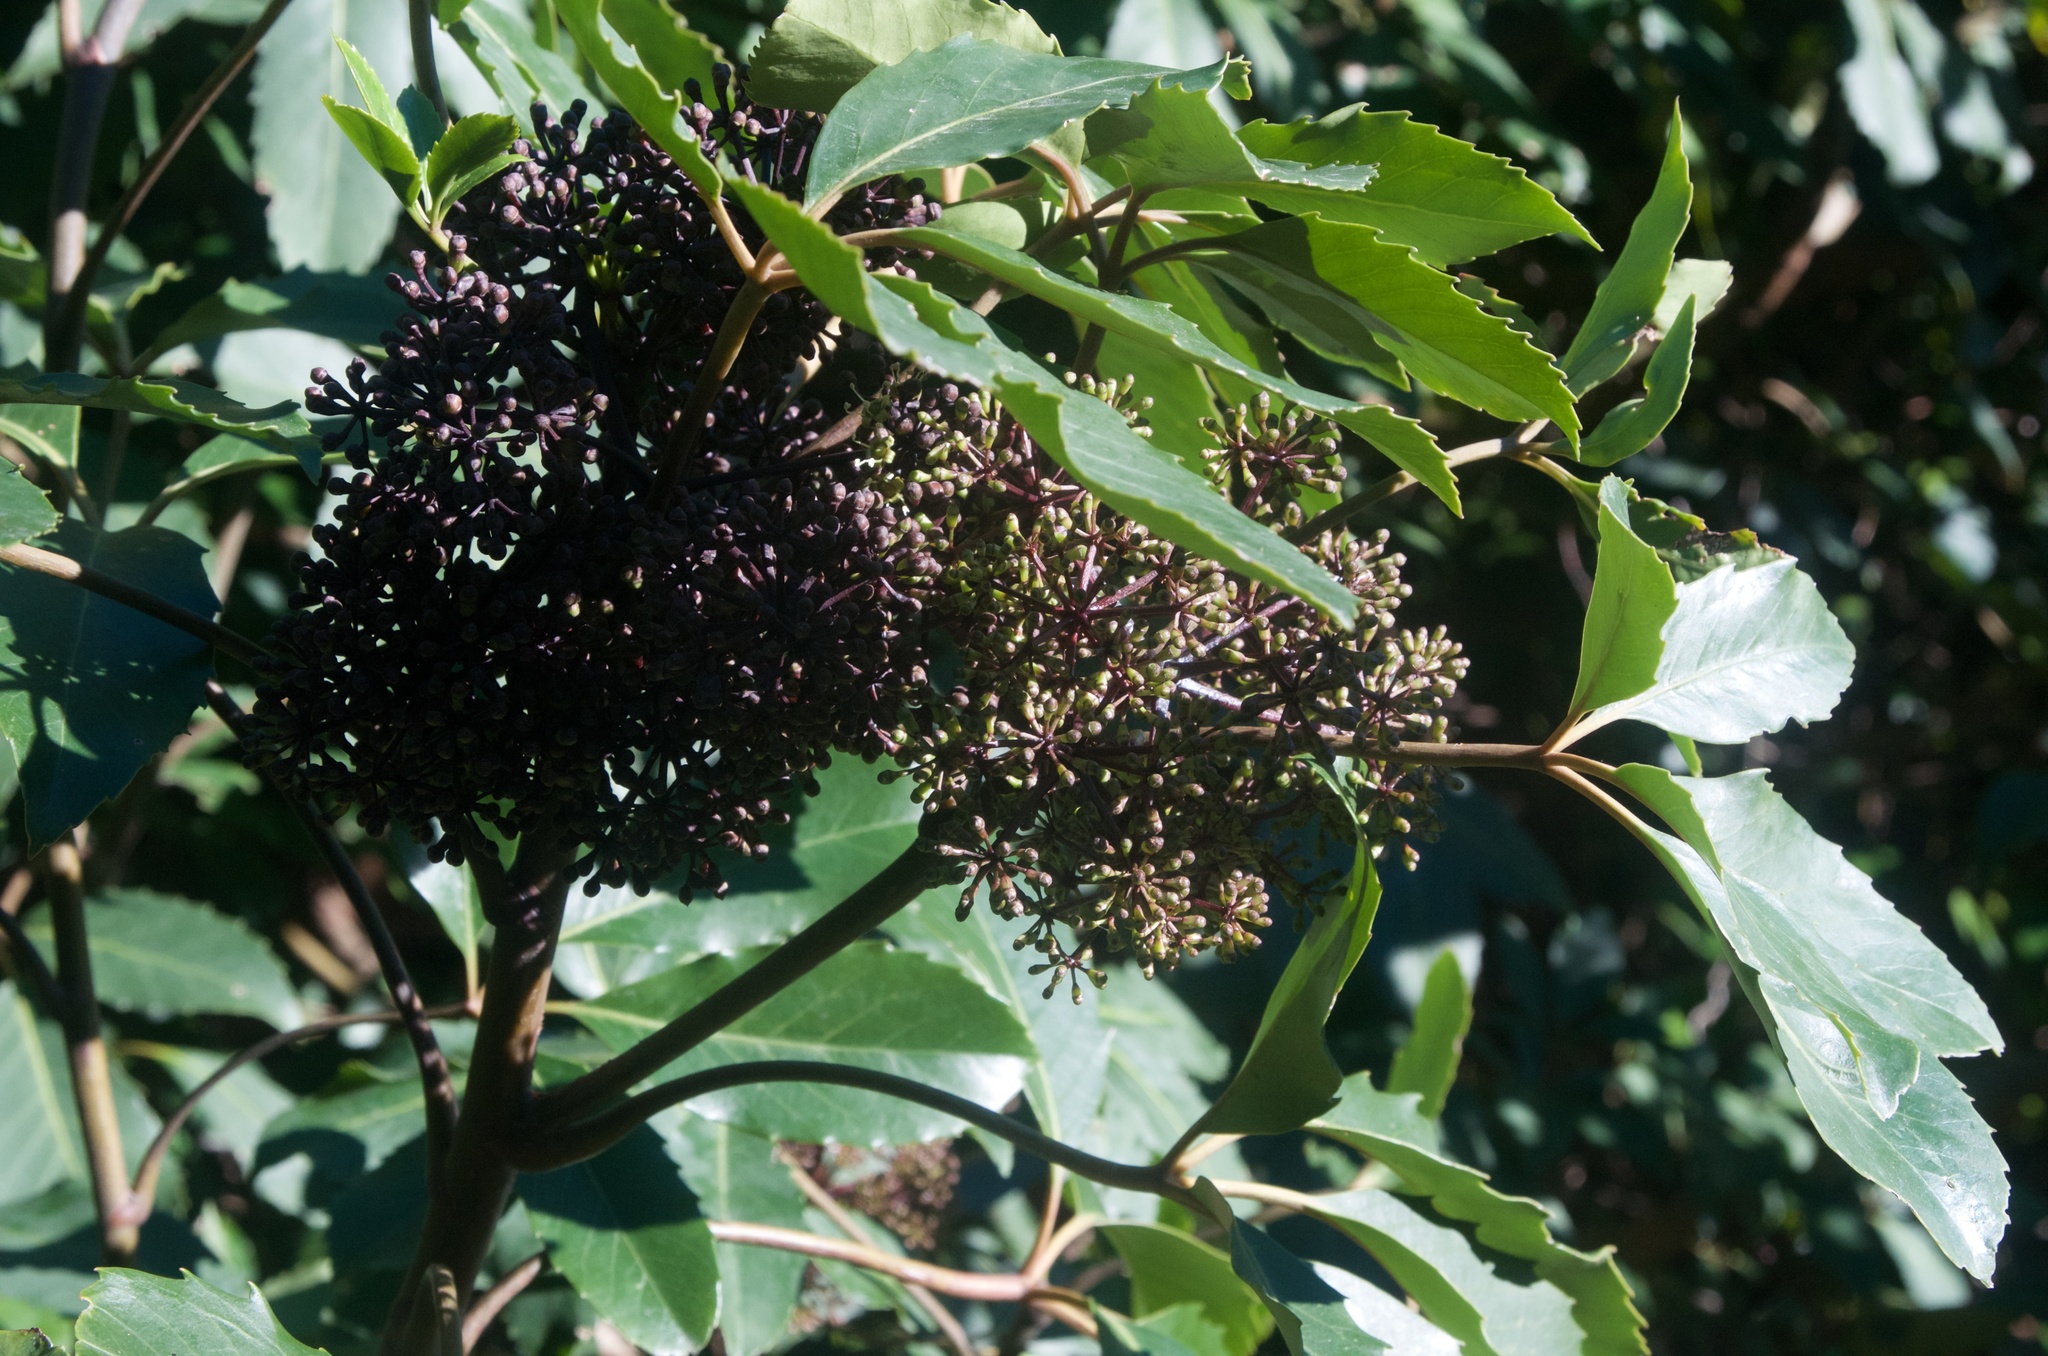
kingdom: Plantae
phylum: Tracheophyta
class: Magnoliopsida
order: Apiales
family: Araliaceae
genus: Neopanax
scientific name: Neopanax arboreus
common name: Five-fingers
